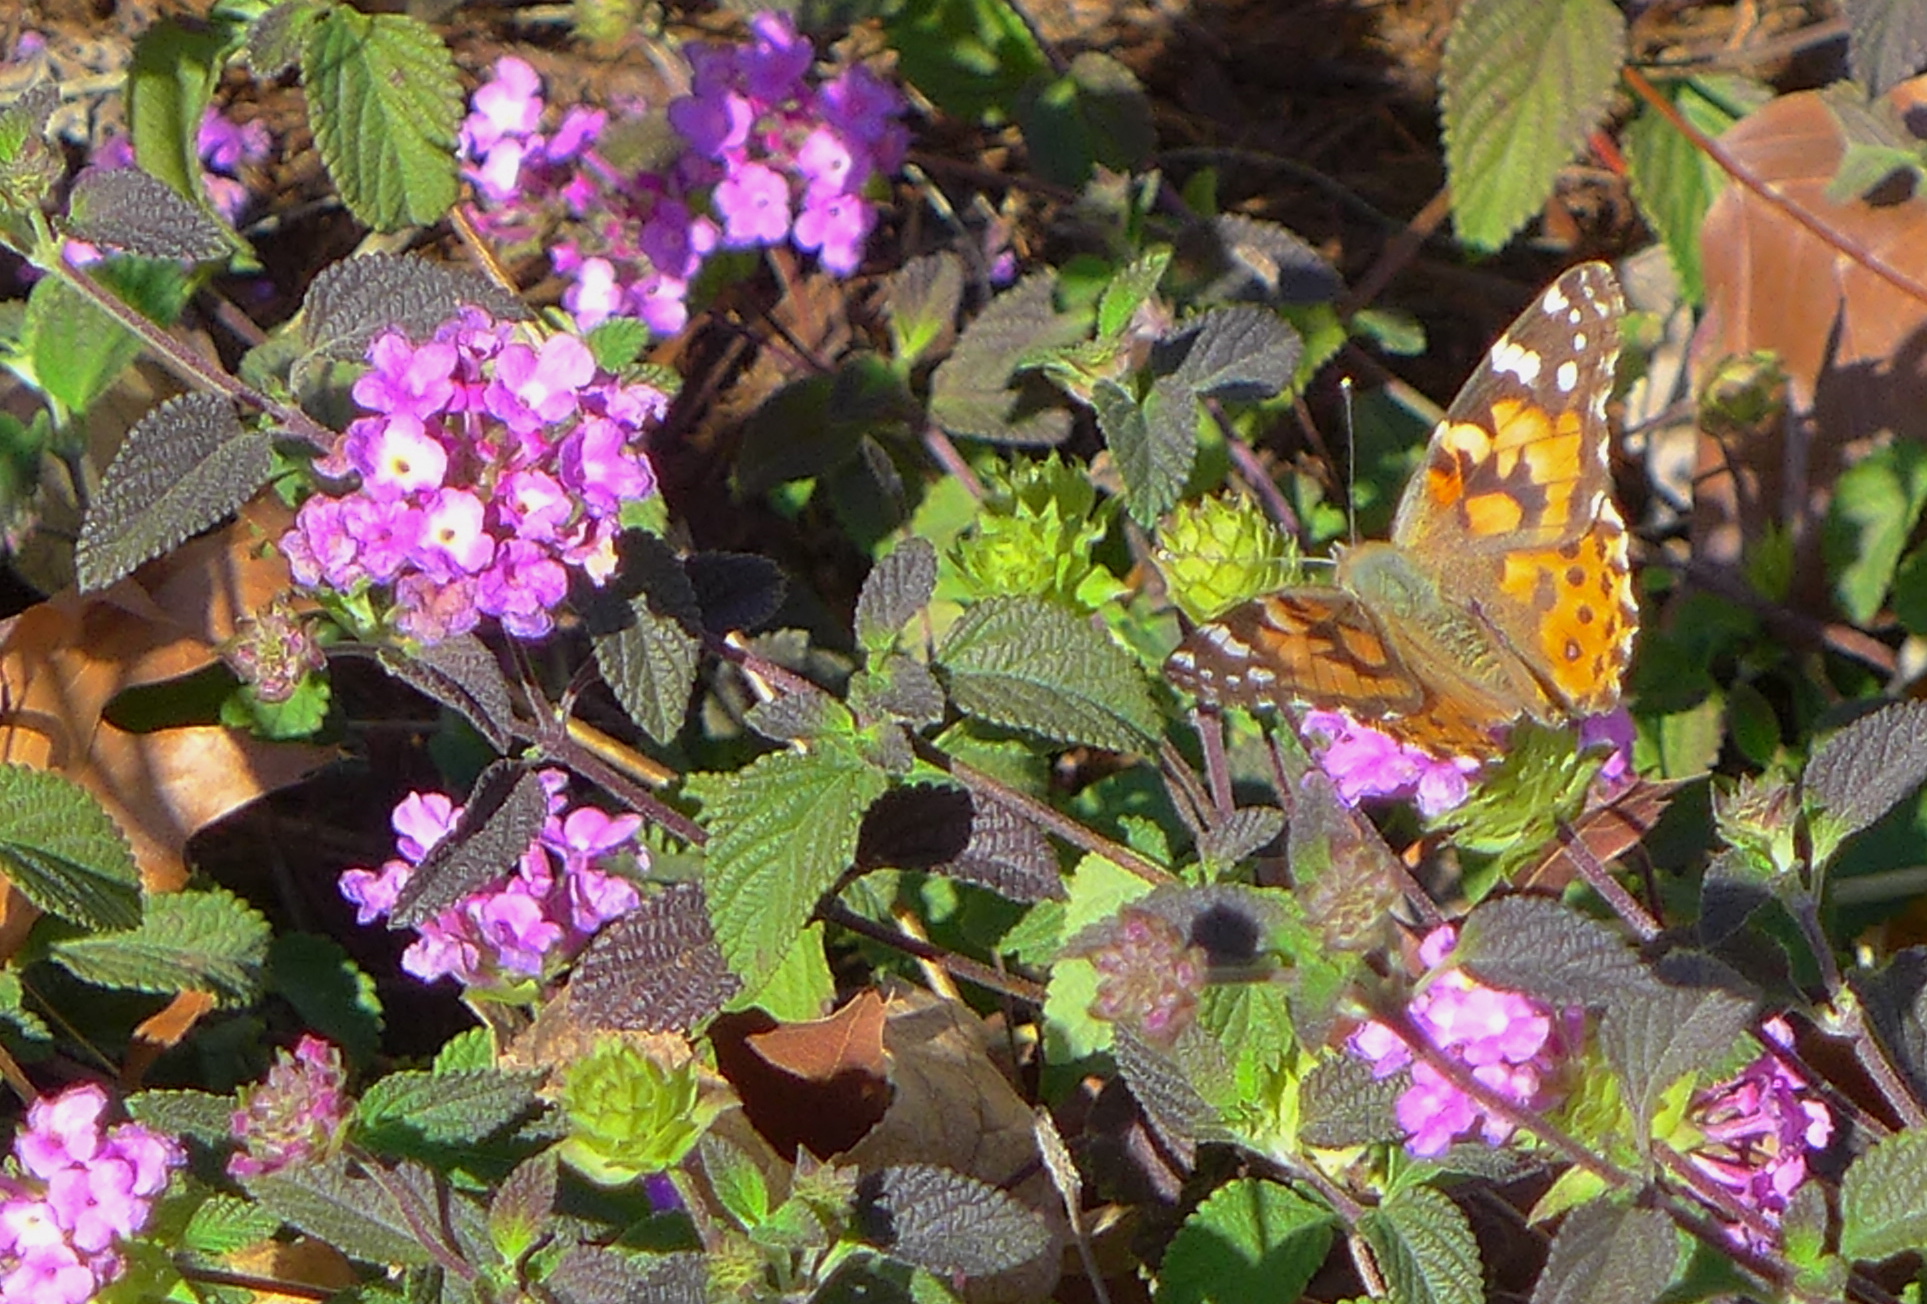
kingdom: Animalia
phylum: Arthropoda
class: Insecta
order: Lepidoptera
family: Nymphalidae
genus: Vanessa
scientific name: Vanessa cardui
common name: Painted lady
